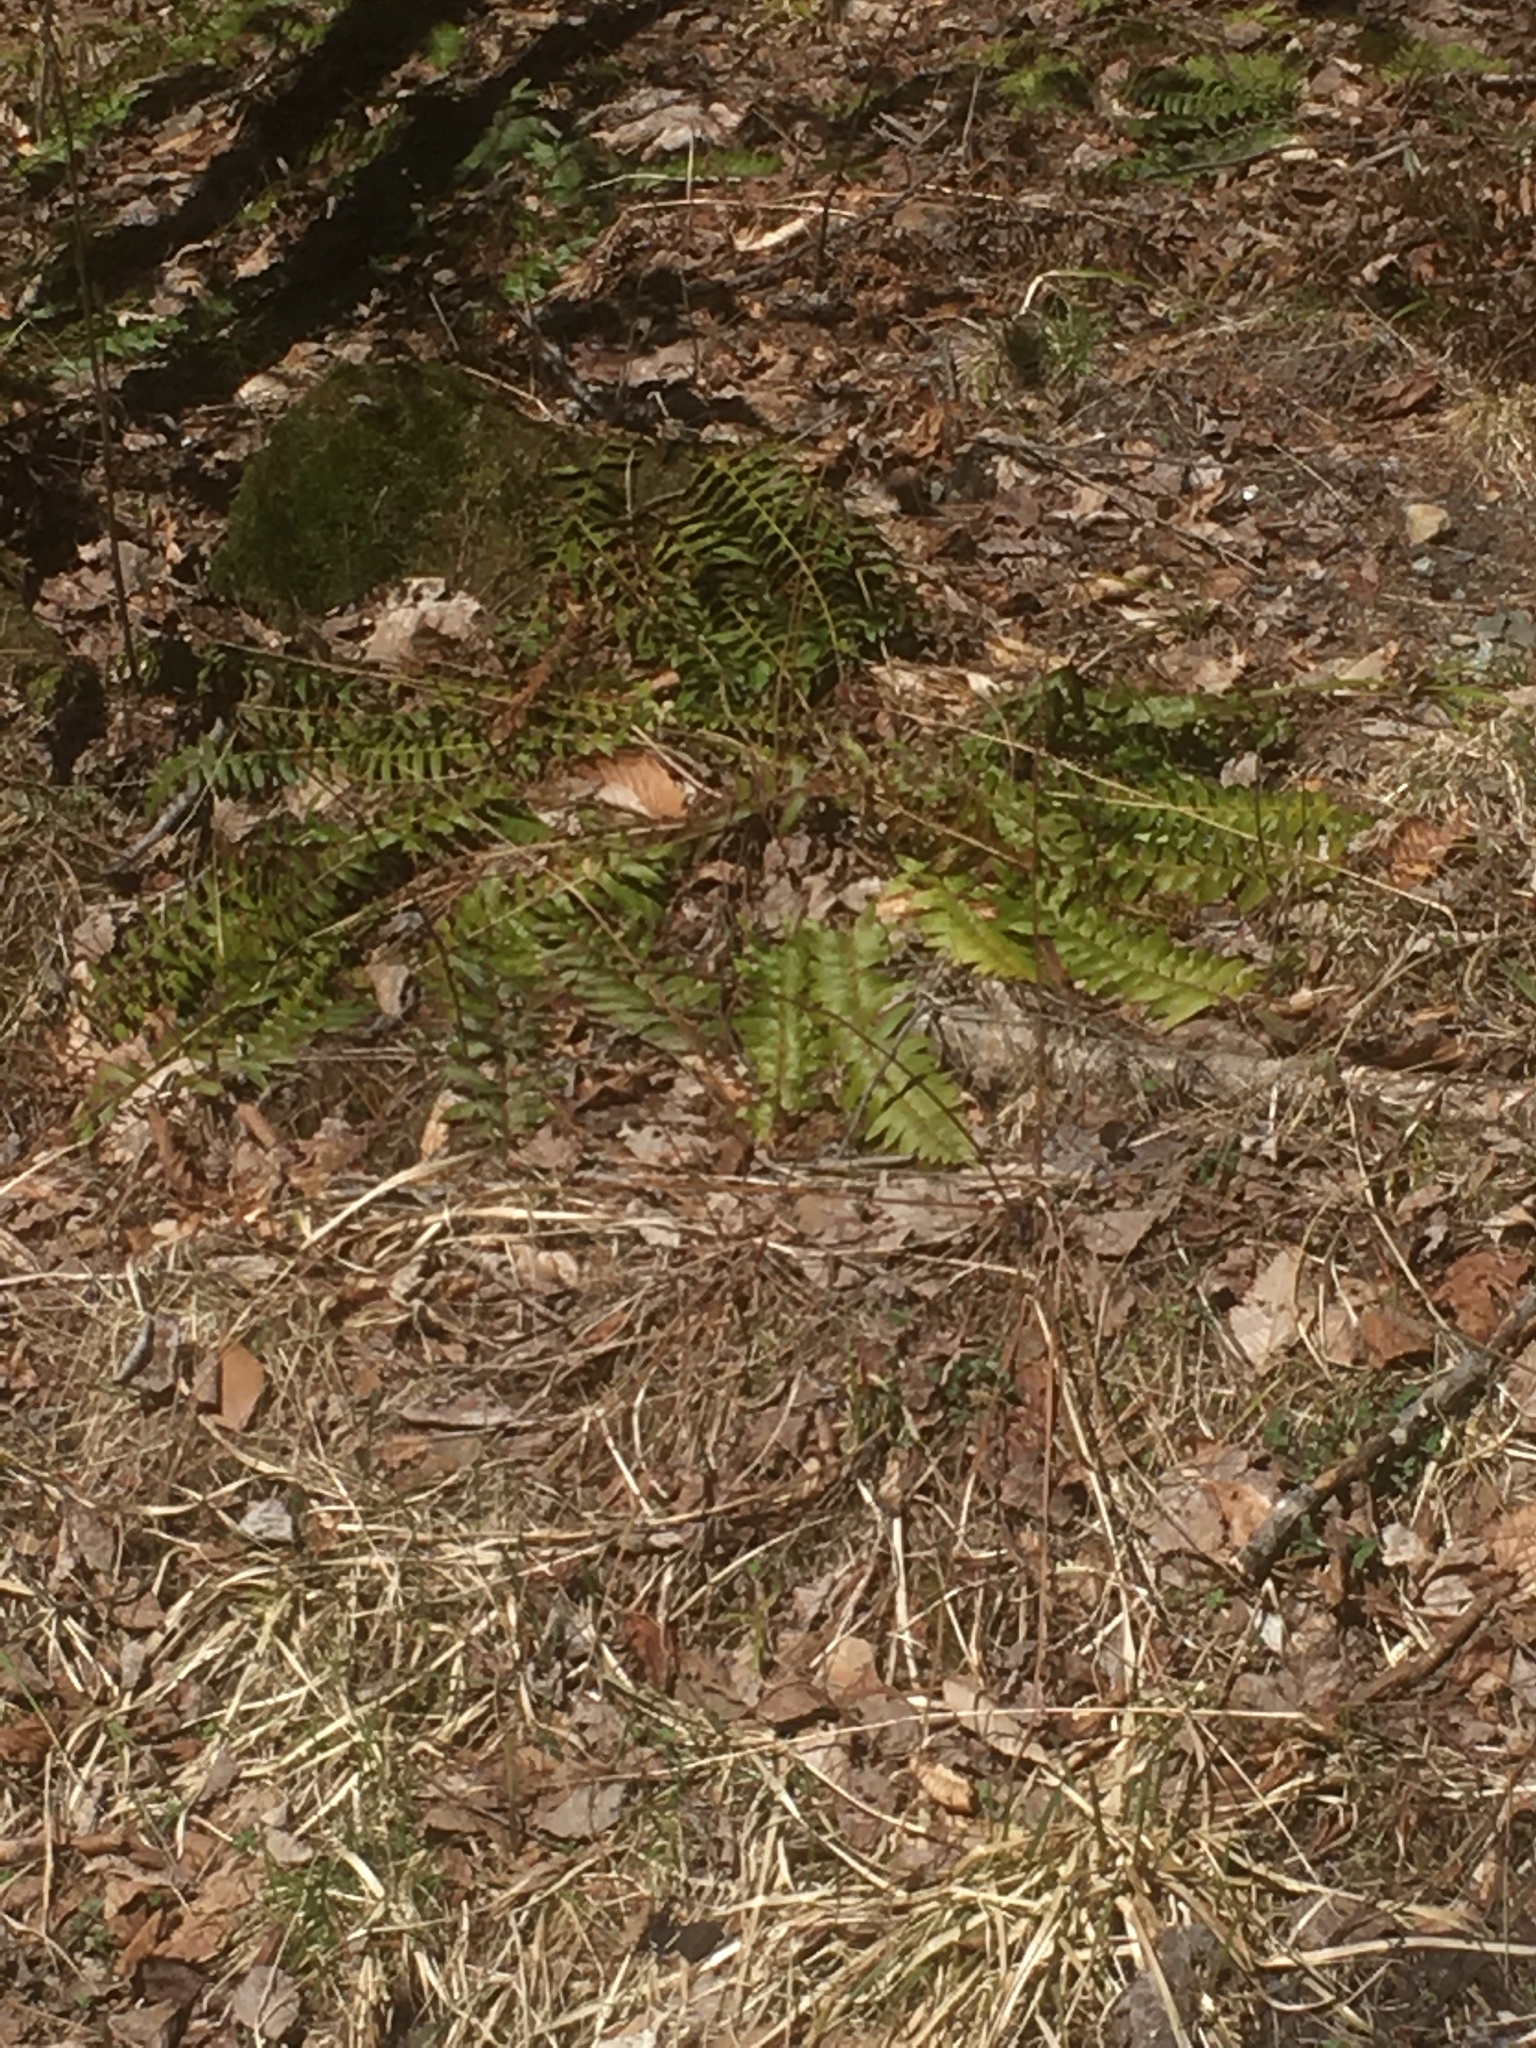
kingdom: Plantae
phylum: Tracheophyta
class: Polypodiopsida
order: Polypodiales
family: Dryopteridaceae
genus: Polystichum
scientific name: Polystichum acrostichoides
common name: Christmas fern
